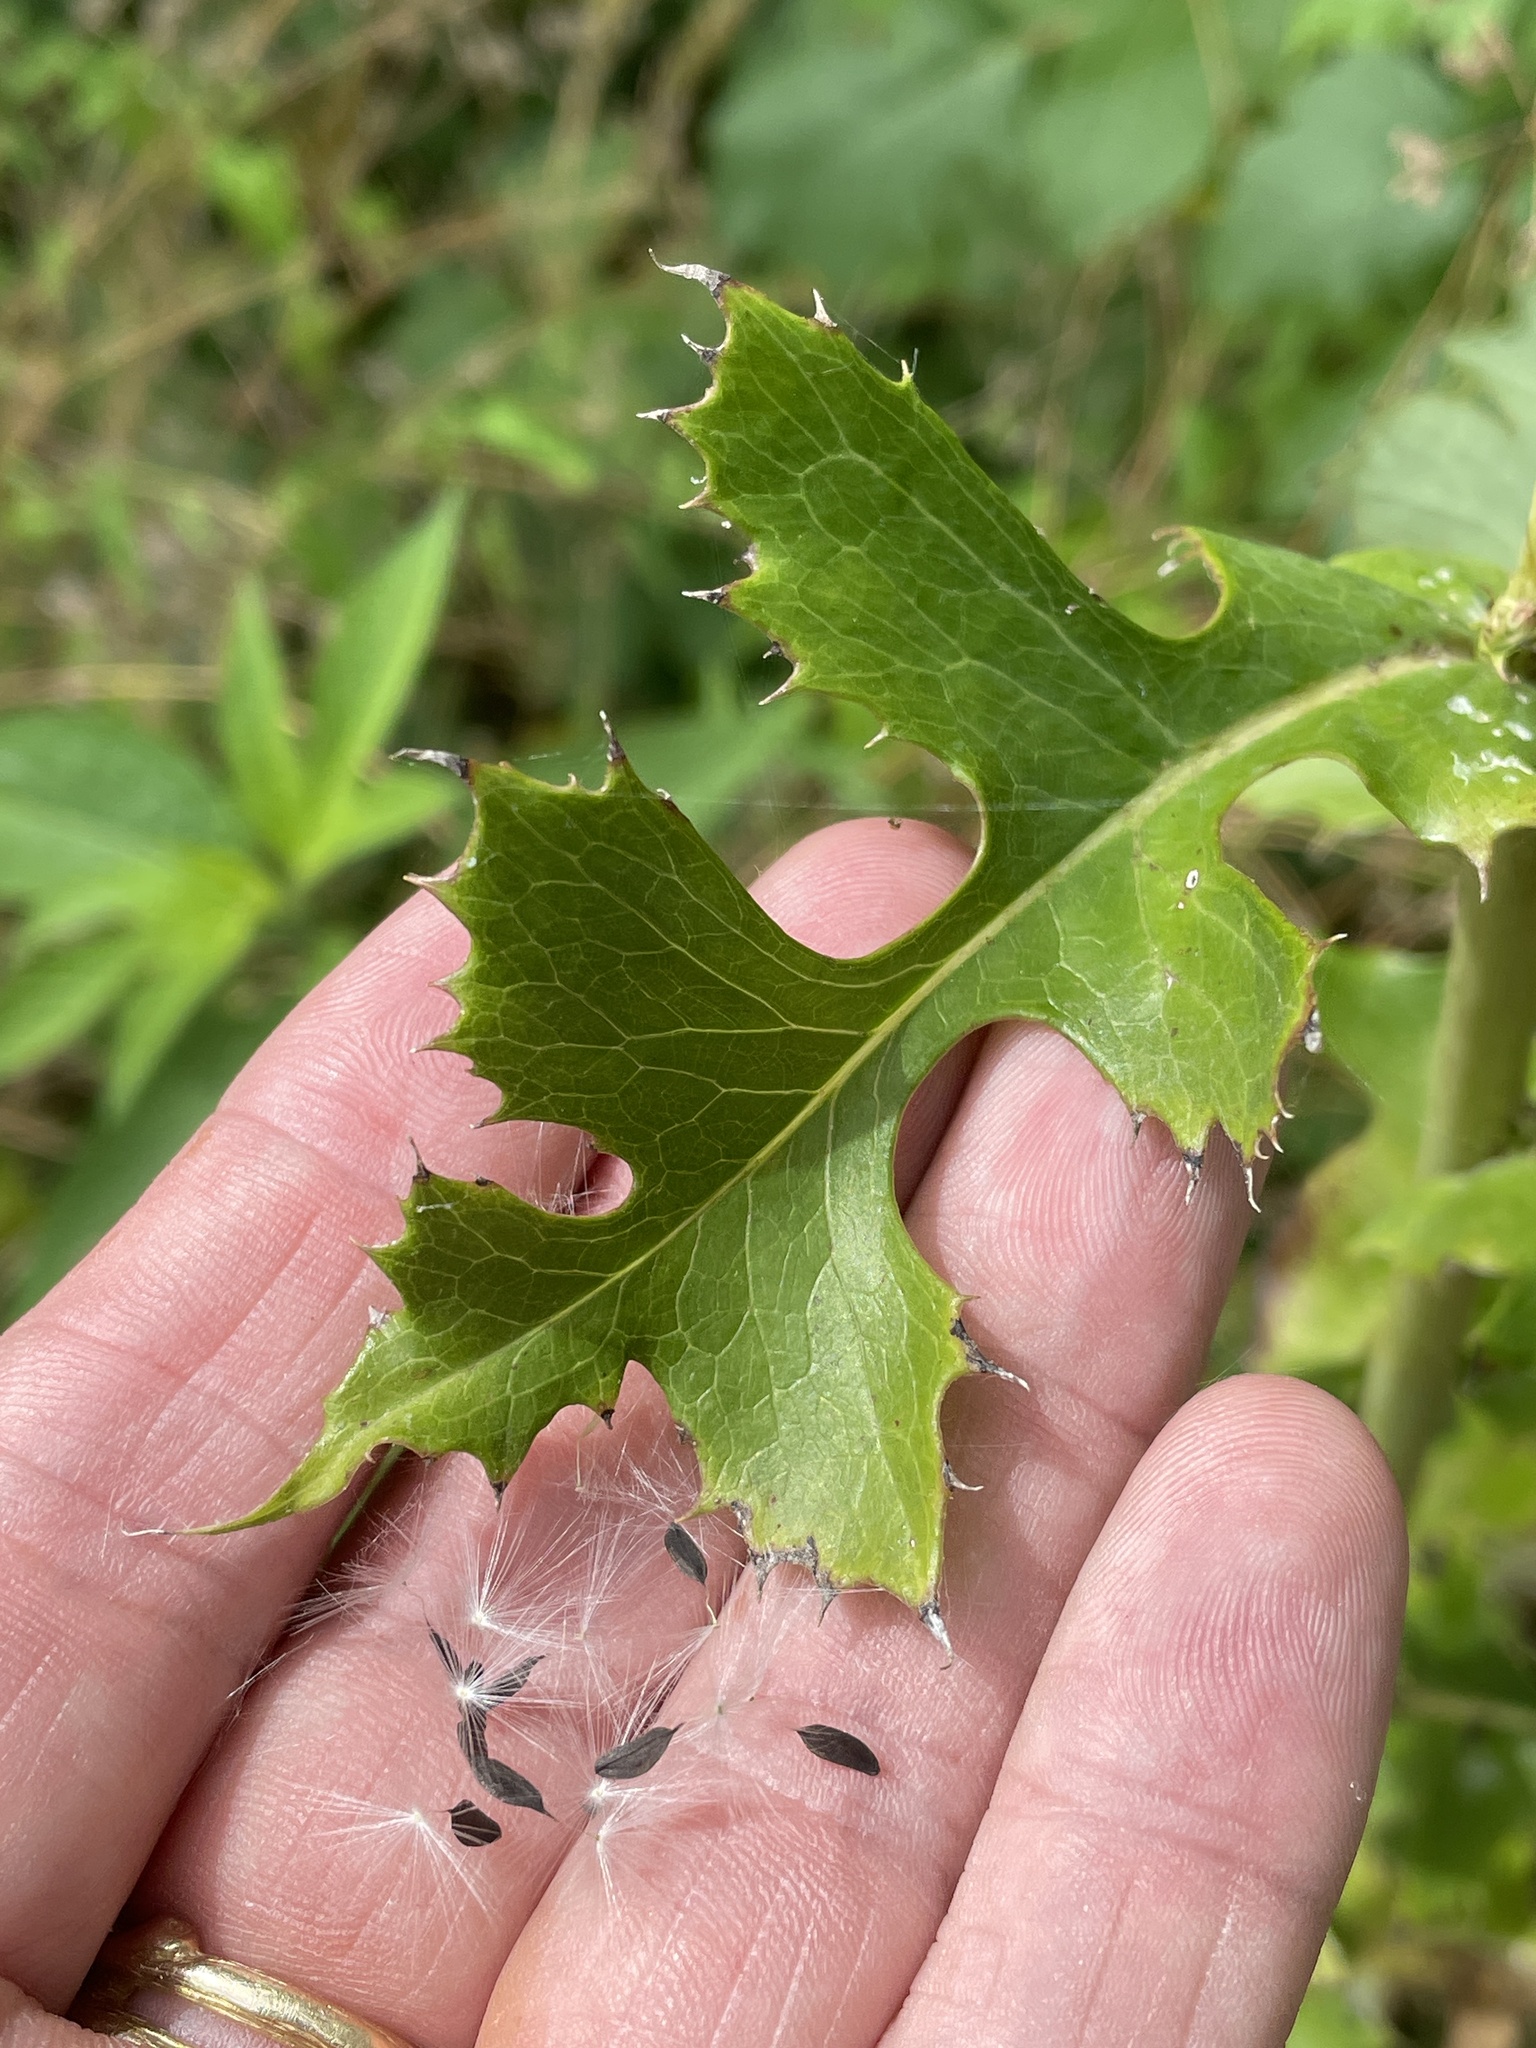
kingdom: Plantae
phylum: Tracheophyta
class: Magnoliopsida
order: Asterales
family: Asteraceae
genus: Lactuca
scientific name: Lactuca ludoviciana
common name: Louisiana lettuce
